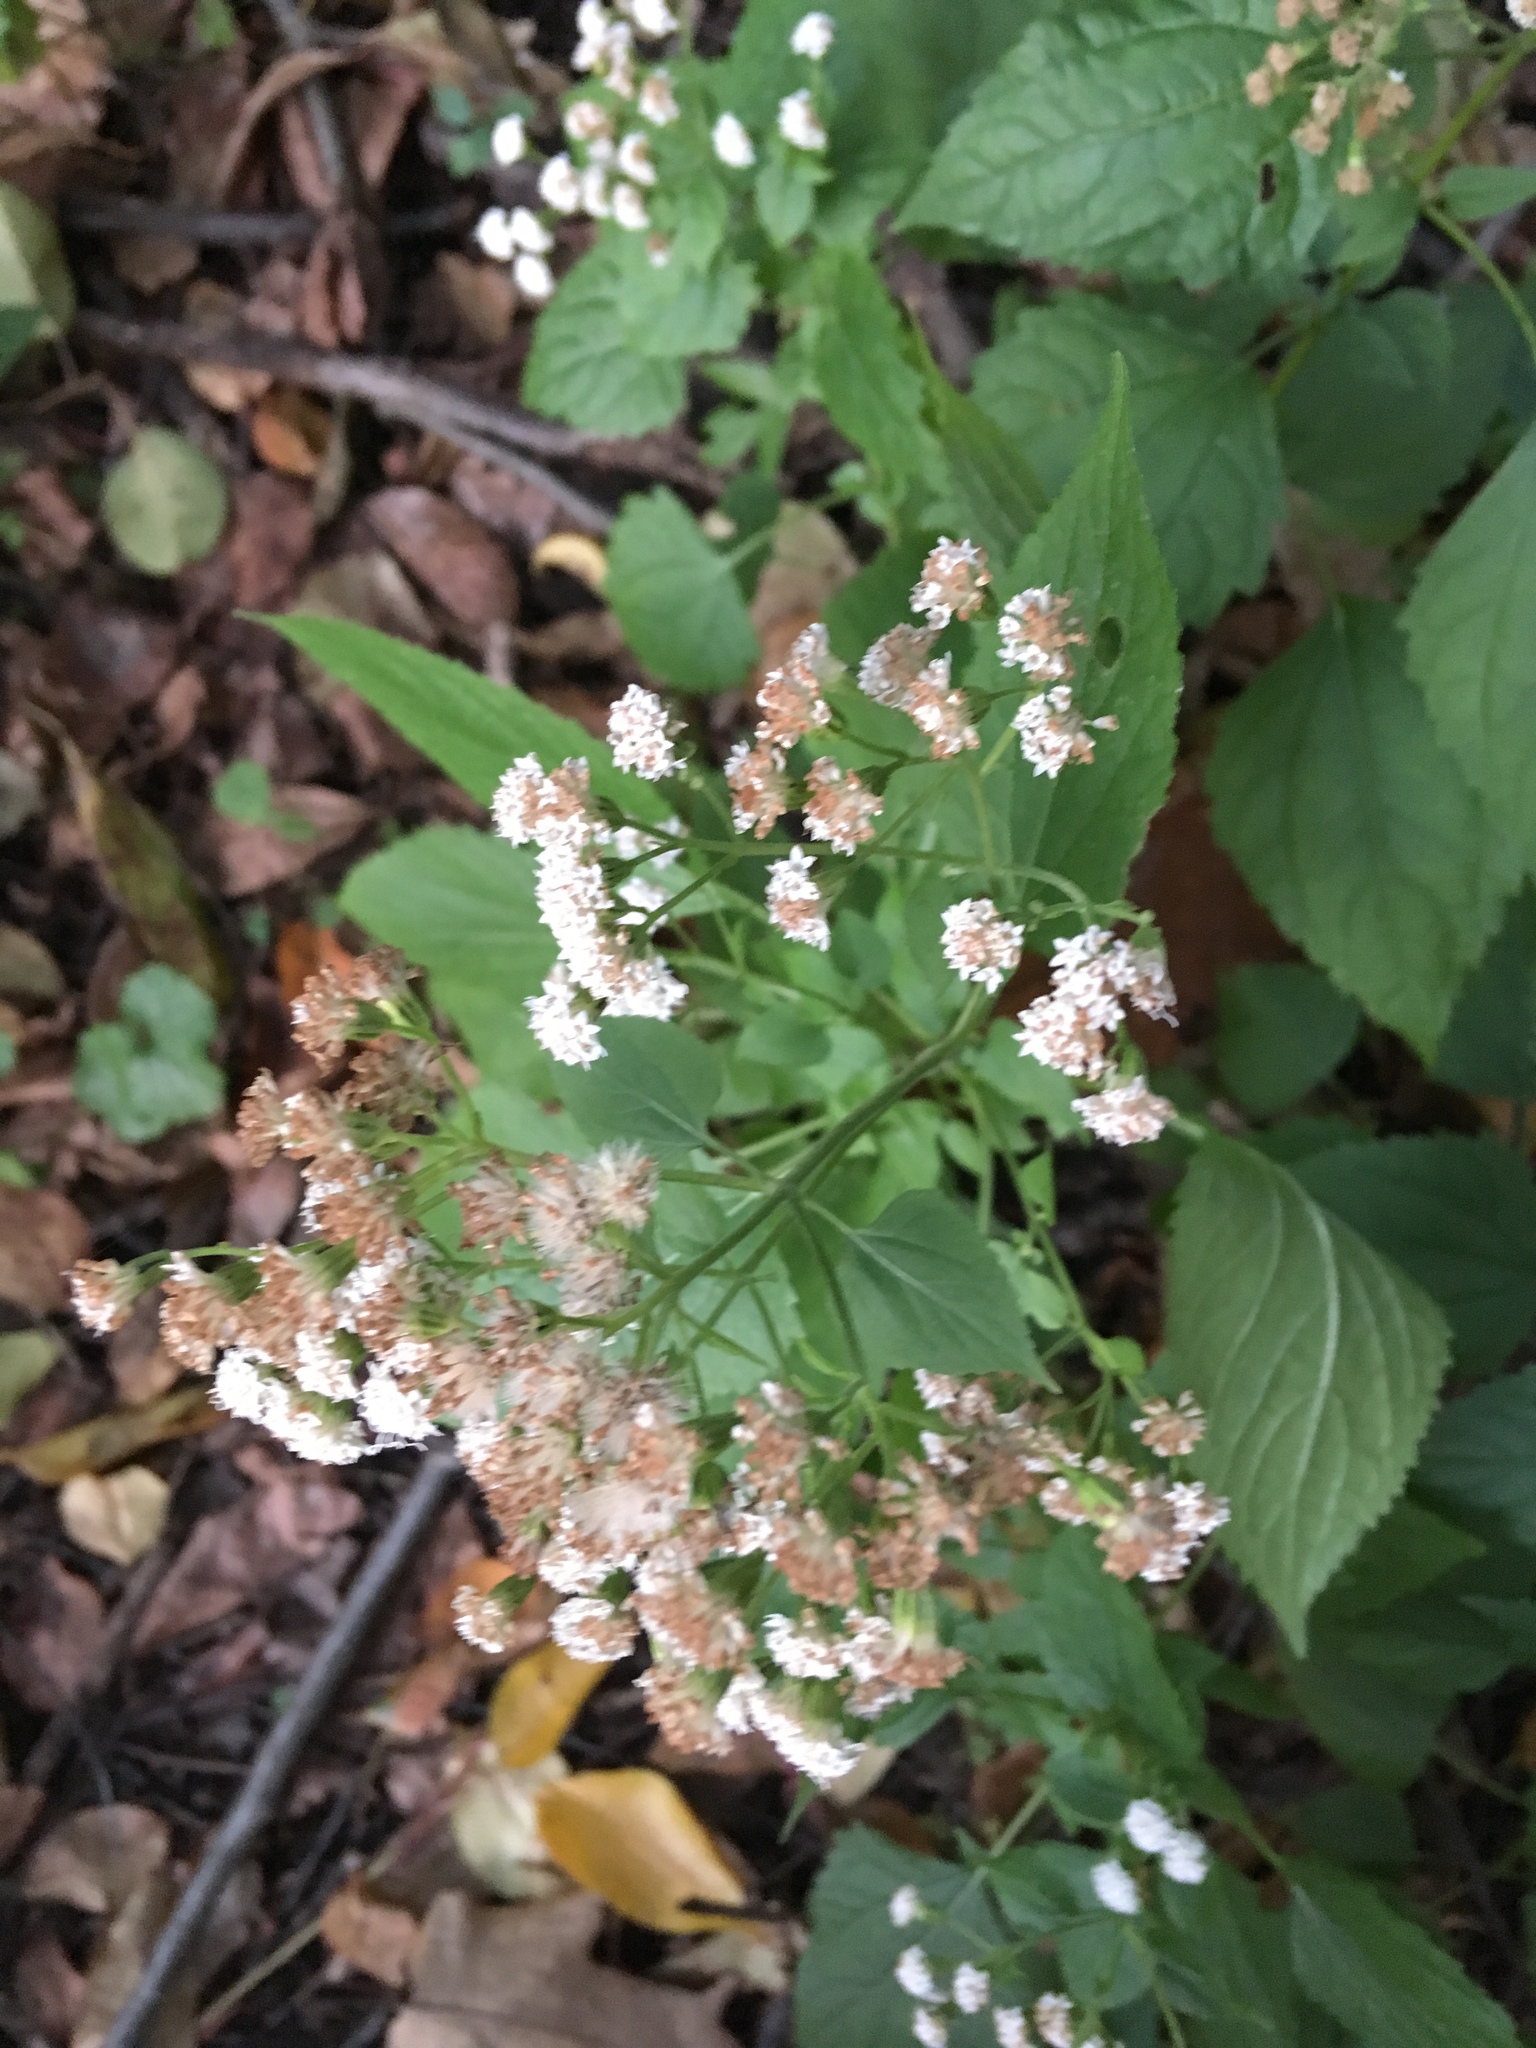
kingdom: Plantae
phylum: Tracheophyta
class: Magnoliopsida
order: Asterales
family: Asteraceae
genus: Ageratina
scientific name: Ageratina altissima
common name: White snakeroot
